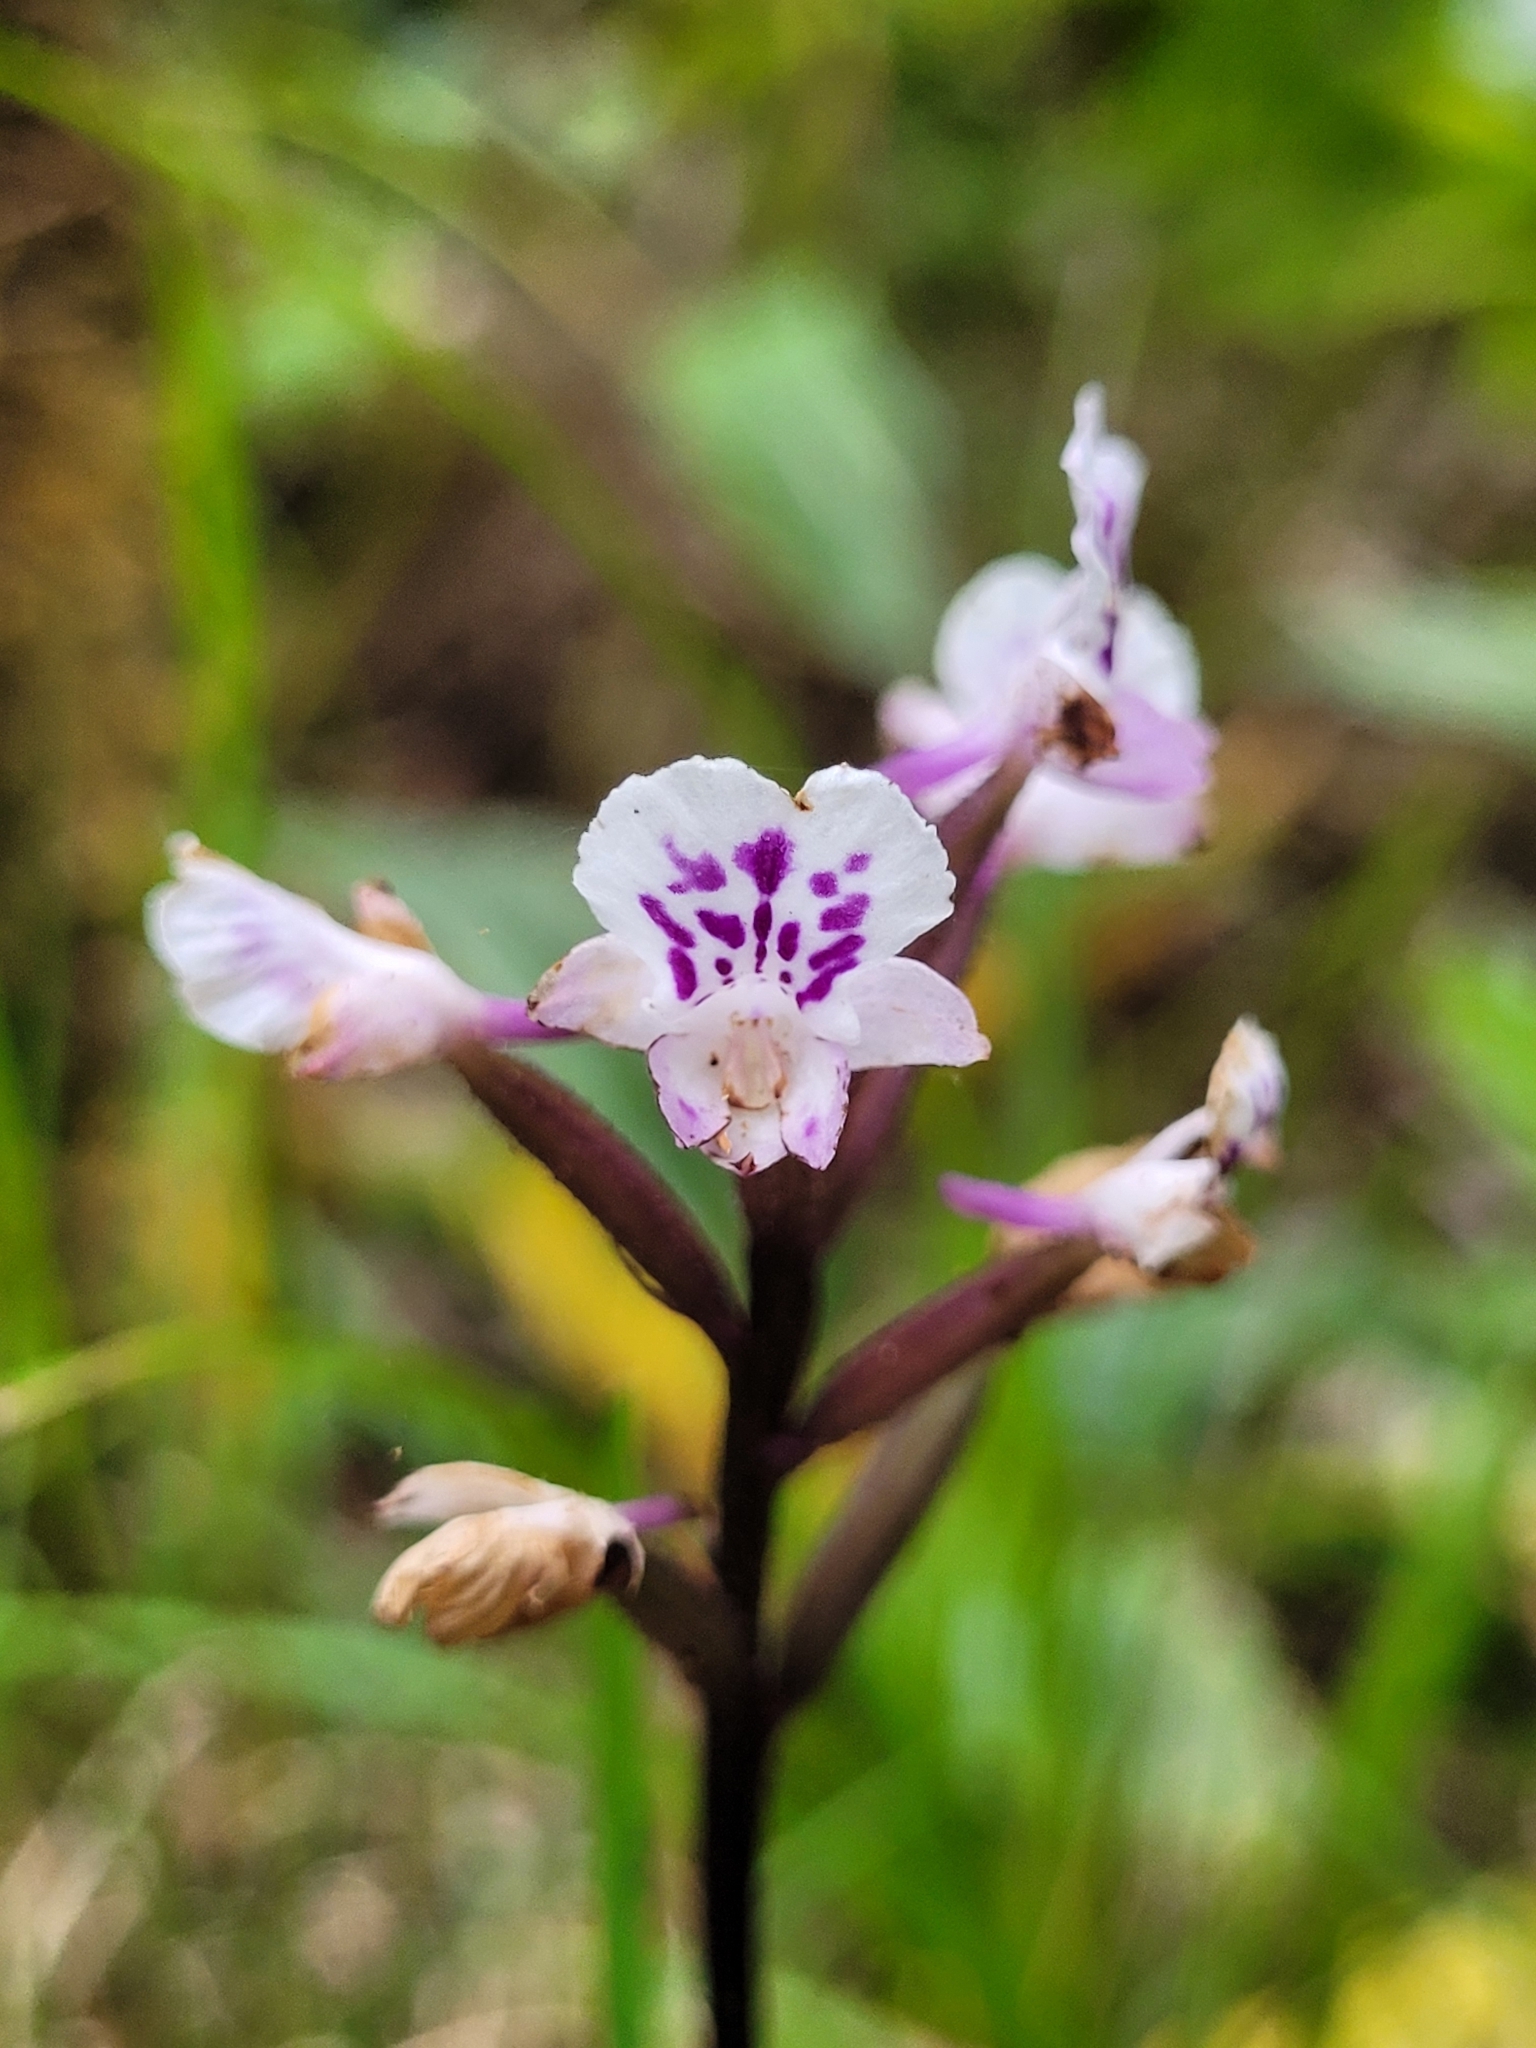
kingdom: Plantae
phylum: Tracheophyta
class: Liliopsida
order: Asparagales
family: Orchidaceae
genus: Cynorkis
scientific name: Cynorkis squamosa
